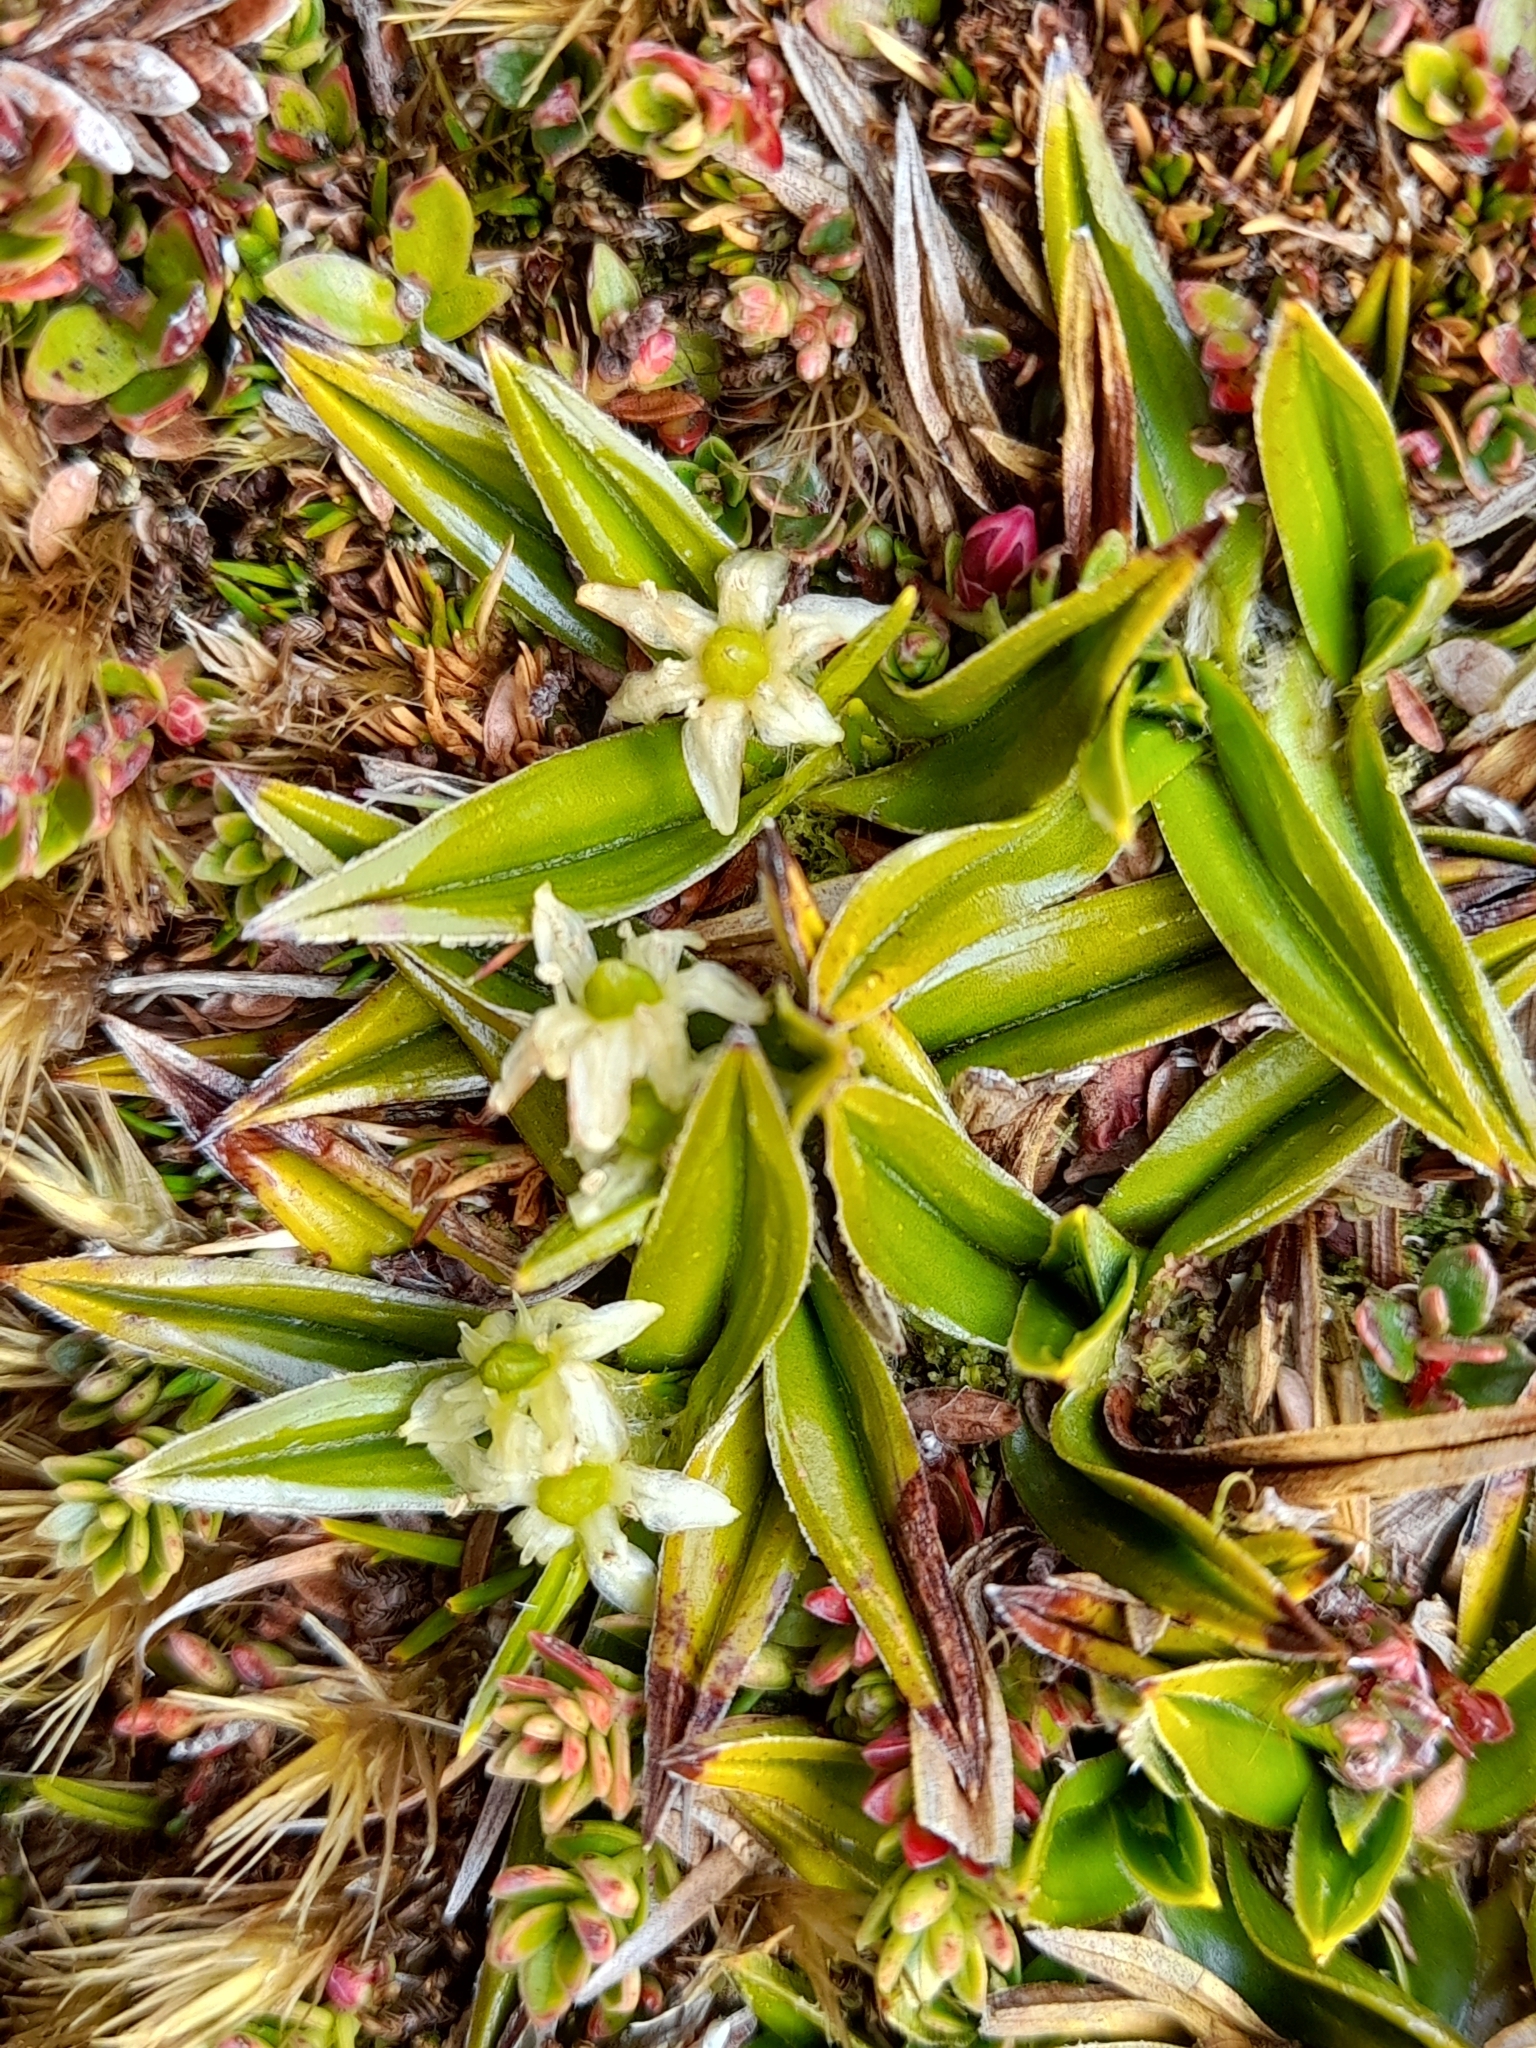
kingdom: Plantae
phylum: Tracheophyta
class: Liliopsida
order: Asparagales
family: Asteliaceae
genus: Astelia
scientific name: Astelia pumila
